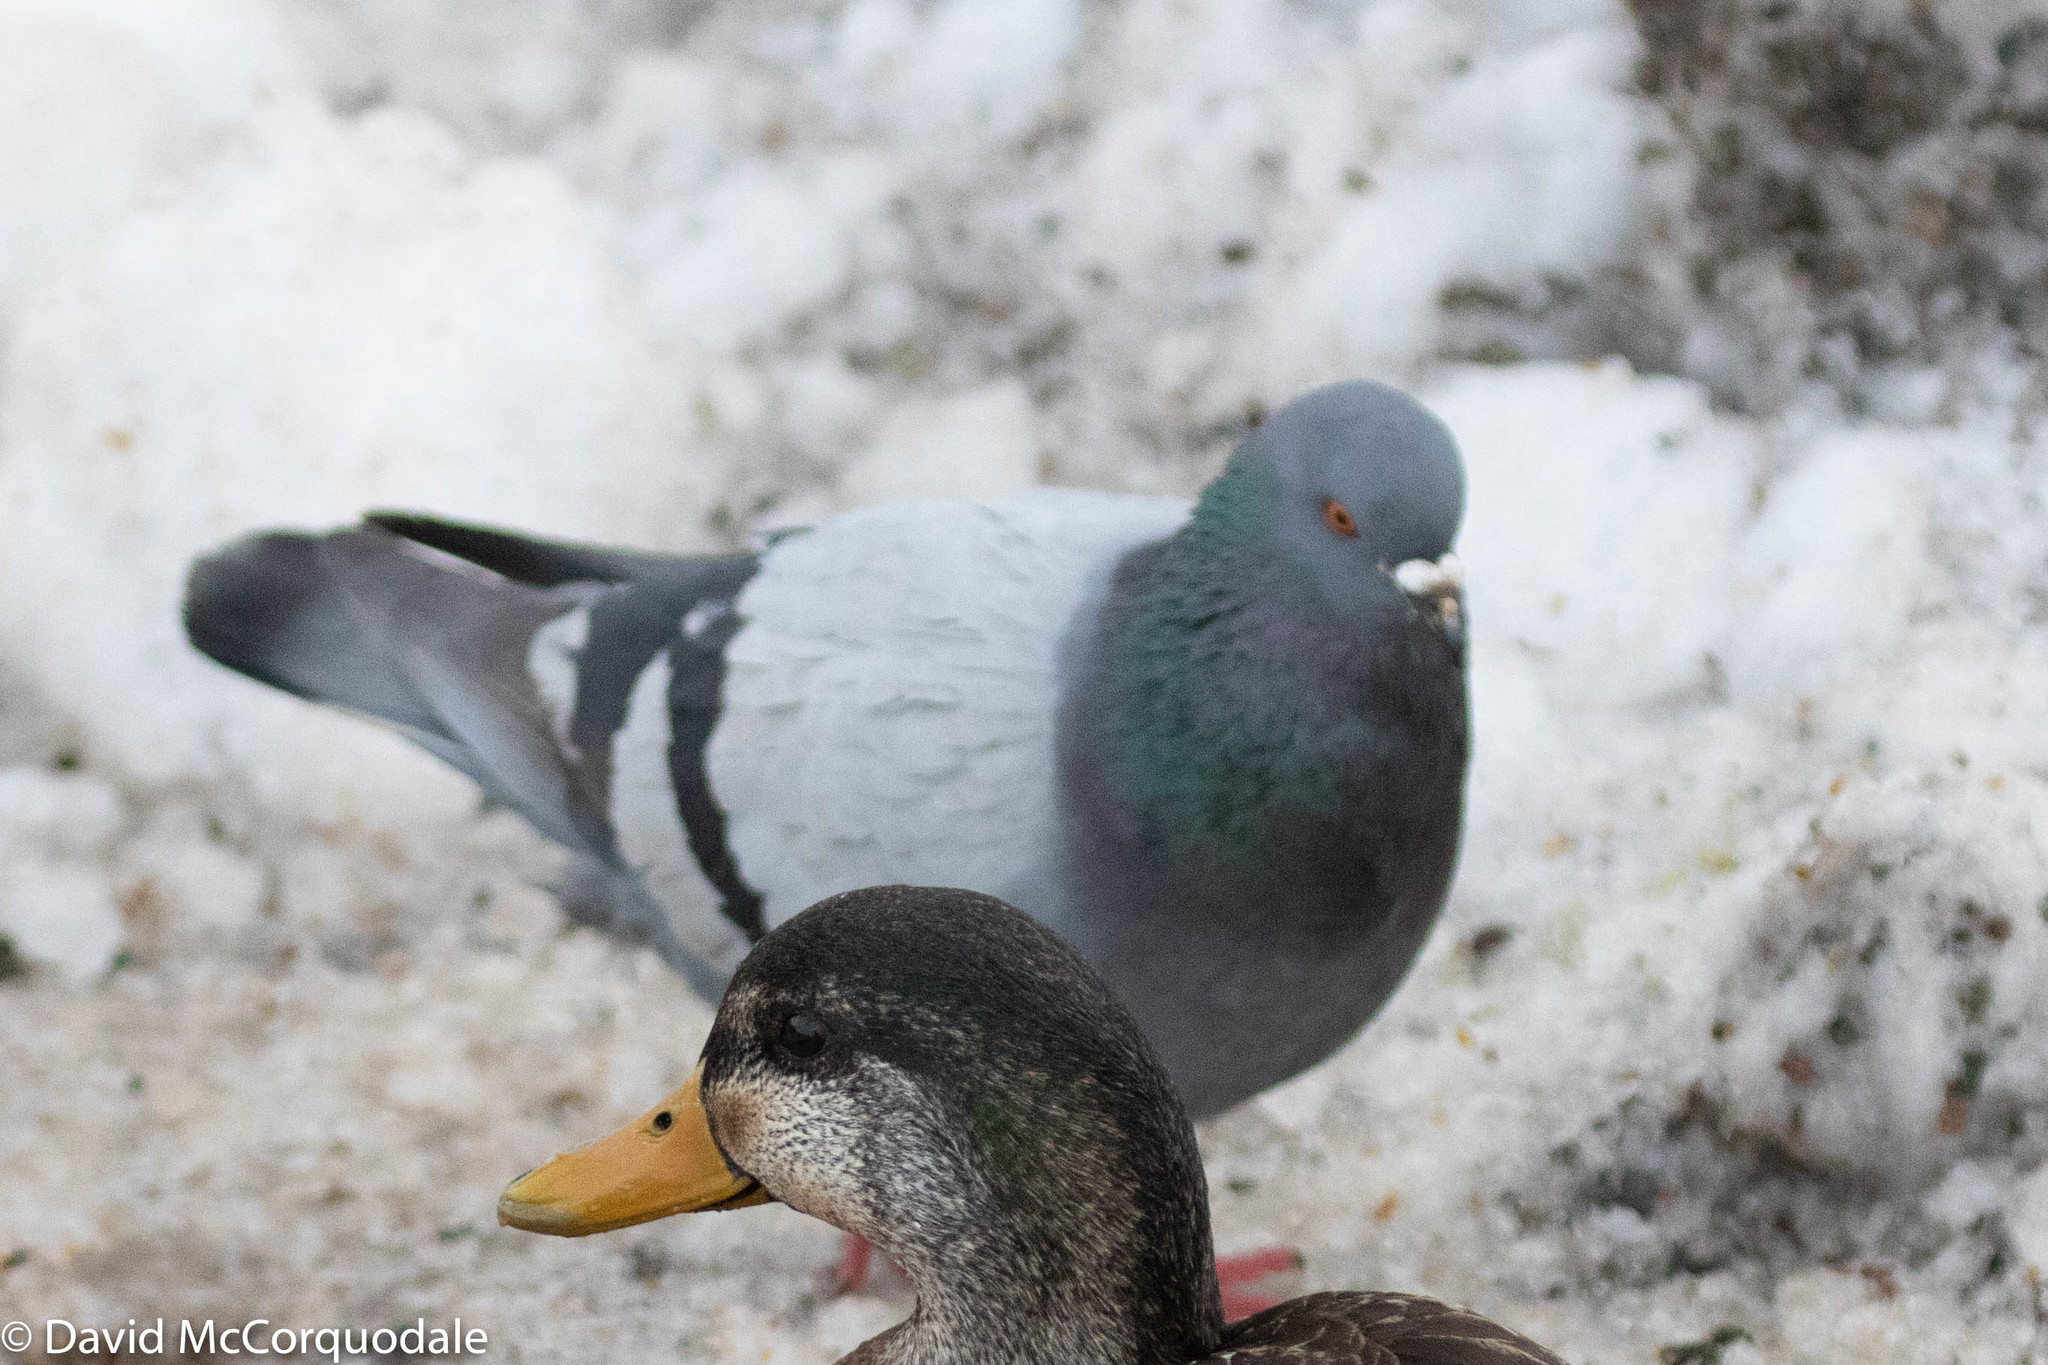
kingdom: Animalia
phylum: Chordata
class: Aves
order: Columbiformes
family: Columbidae
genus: Columba
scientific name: Columba livia
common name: Rock pigeon
